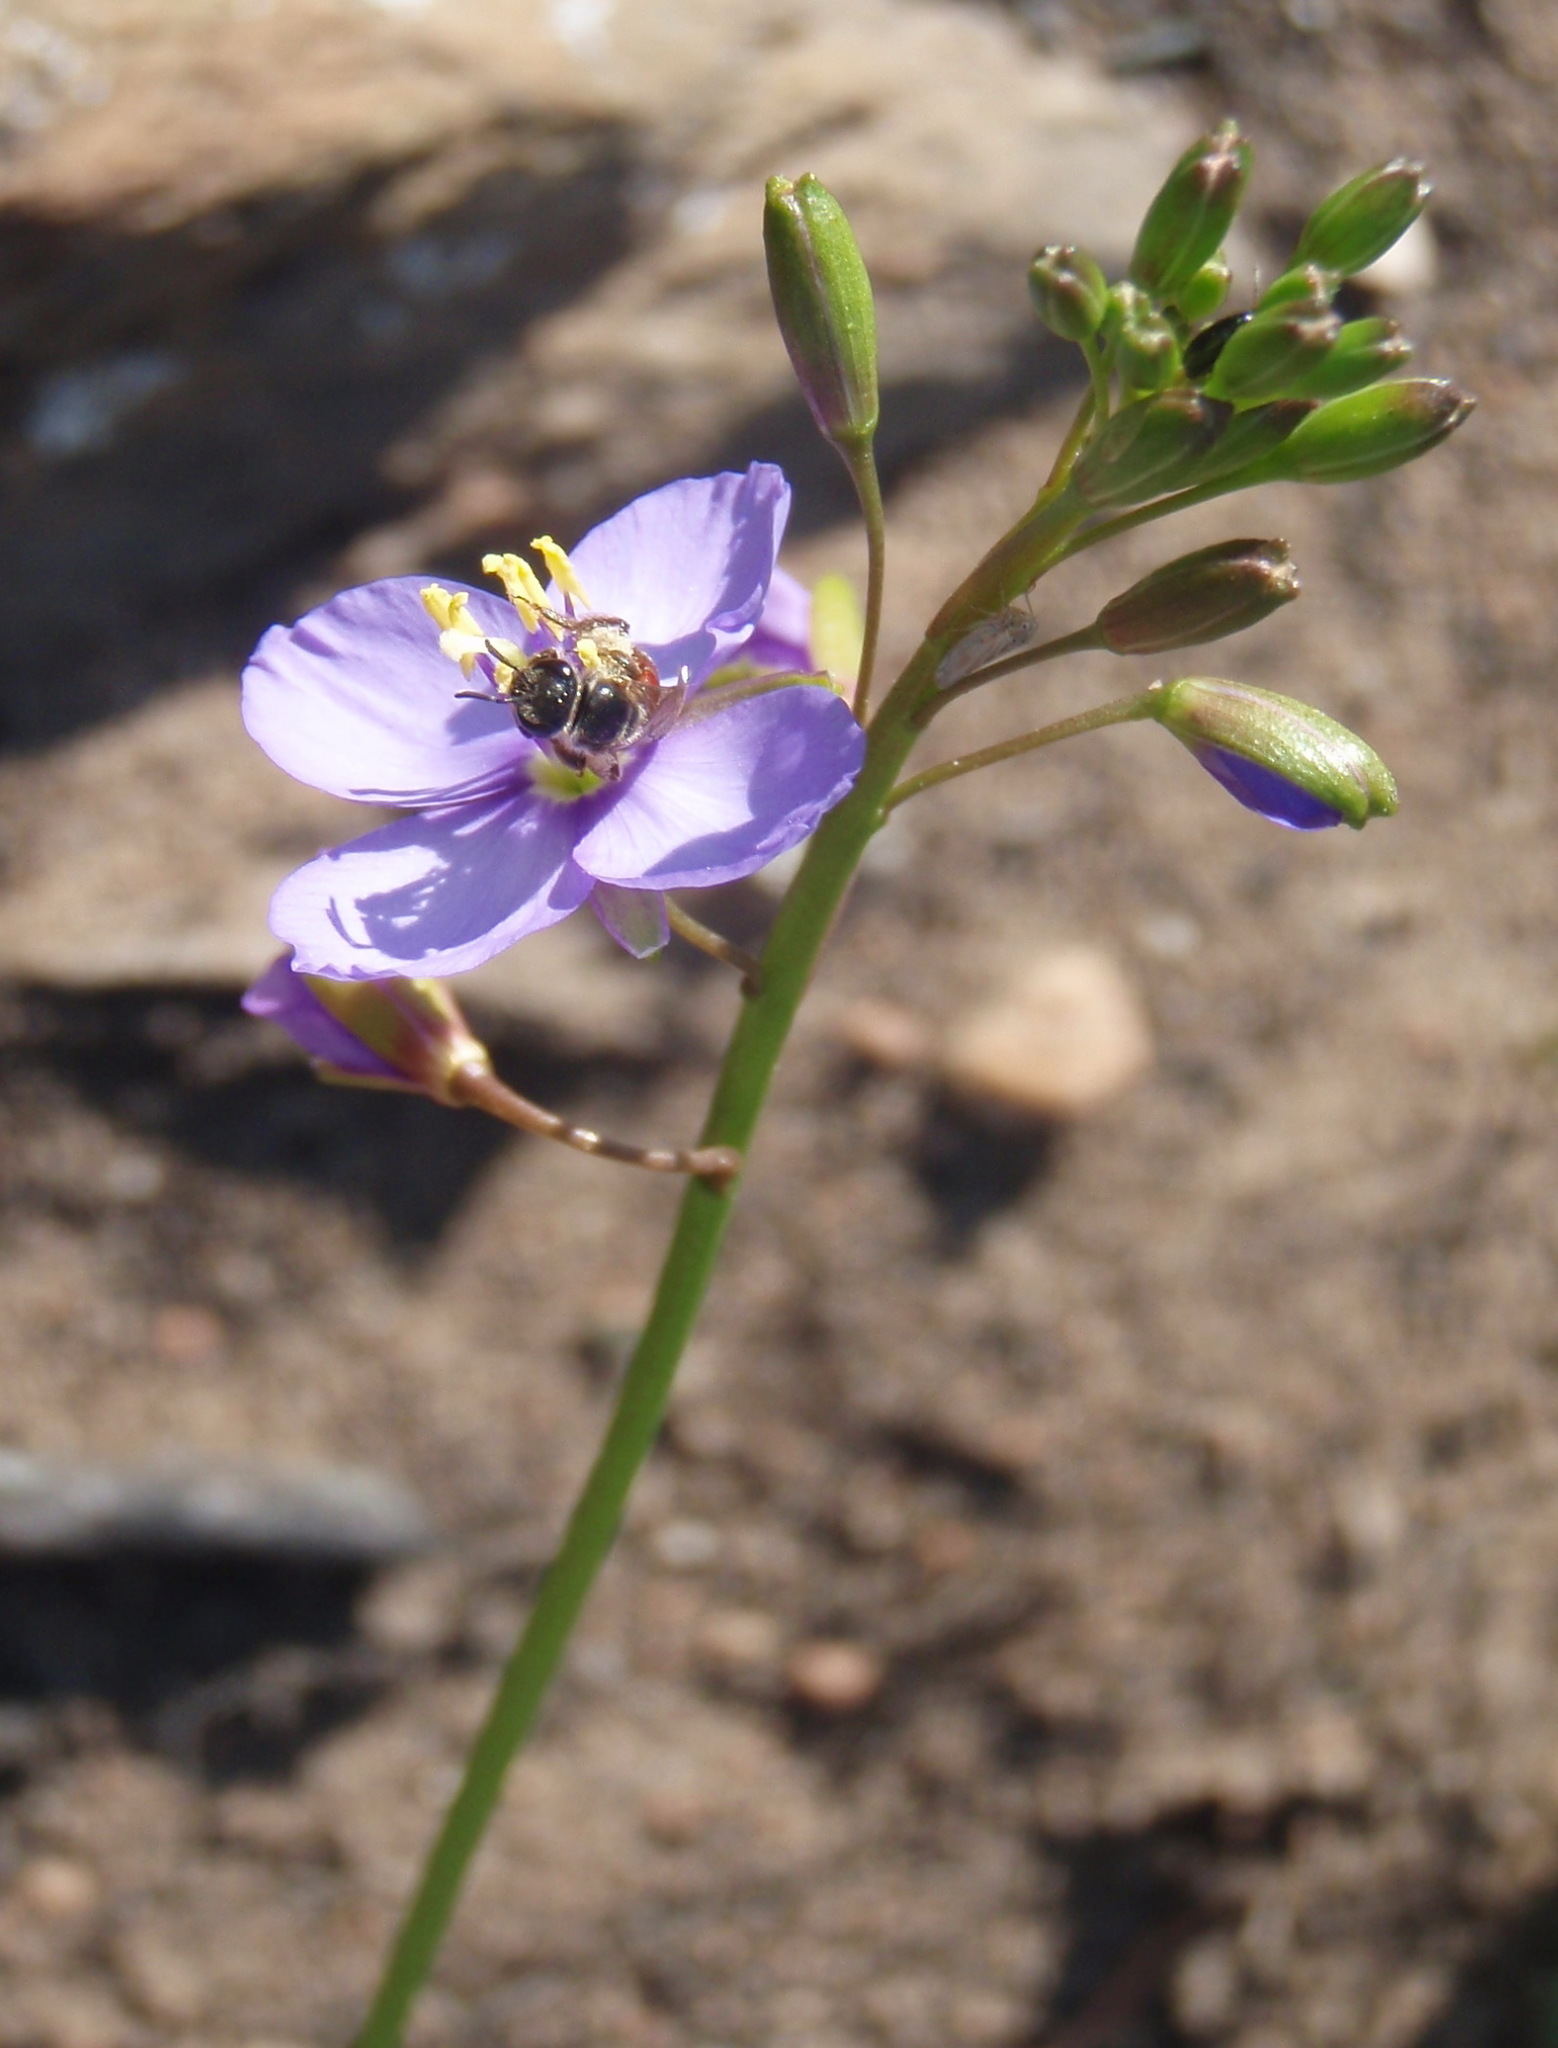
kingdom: Plantae
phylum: Tracheophyta
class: Magnoliopsida
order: Brassicales
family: Brassicaceae
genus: Heliophila
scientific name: Heliophila subulata
